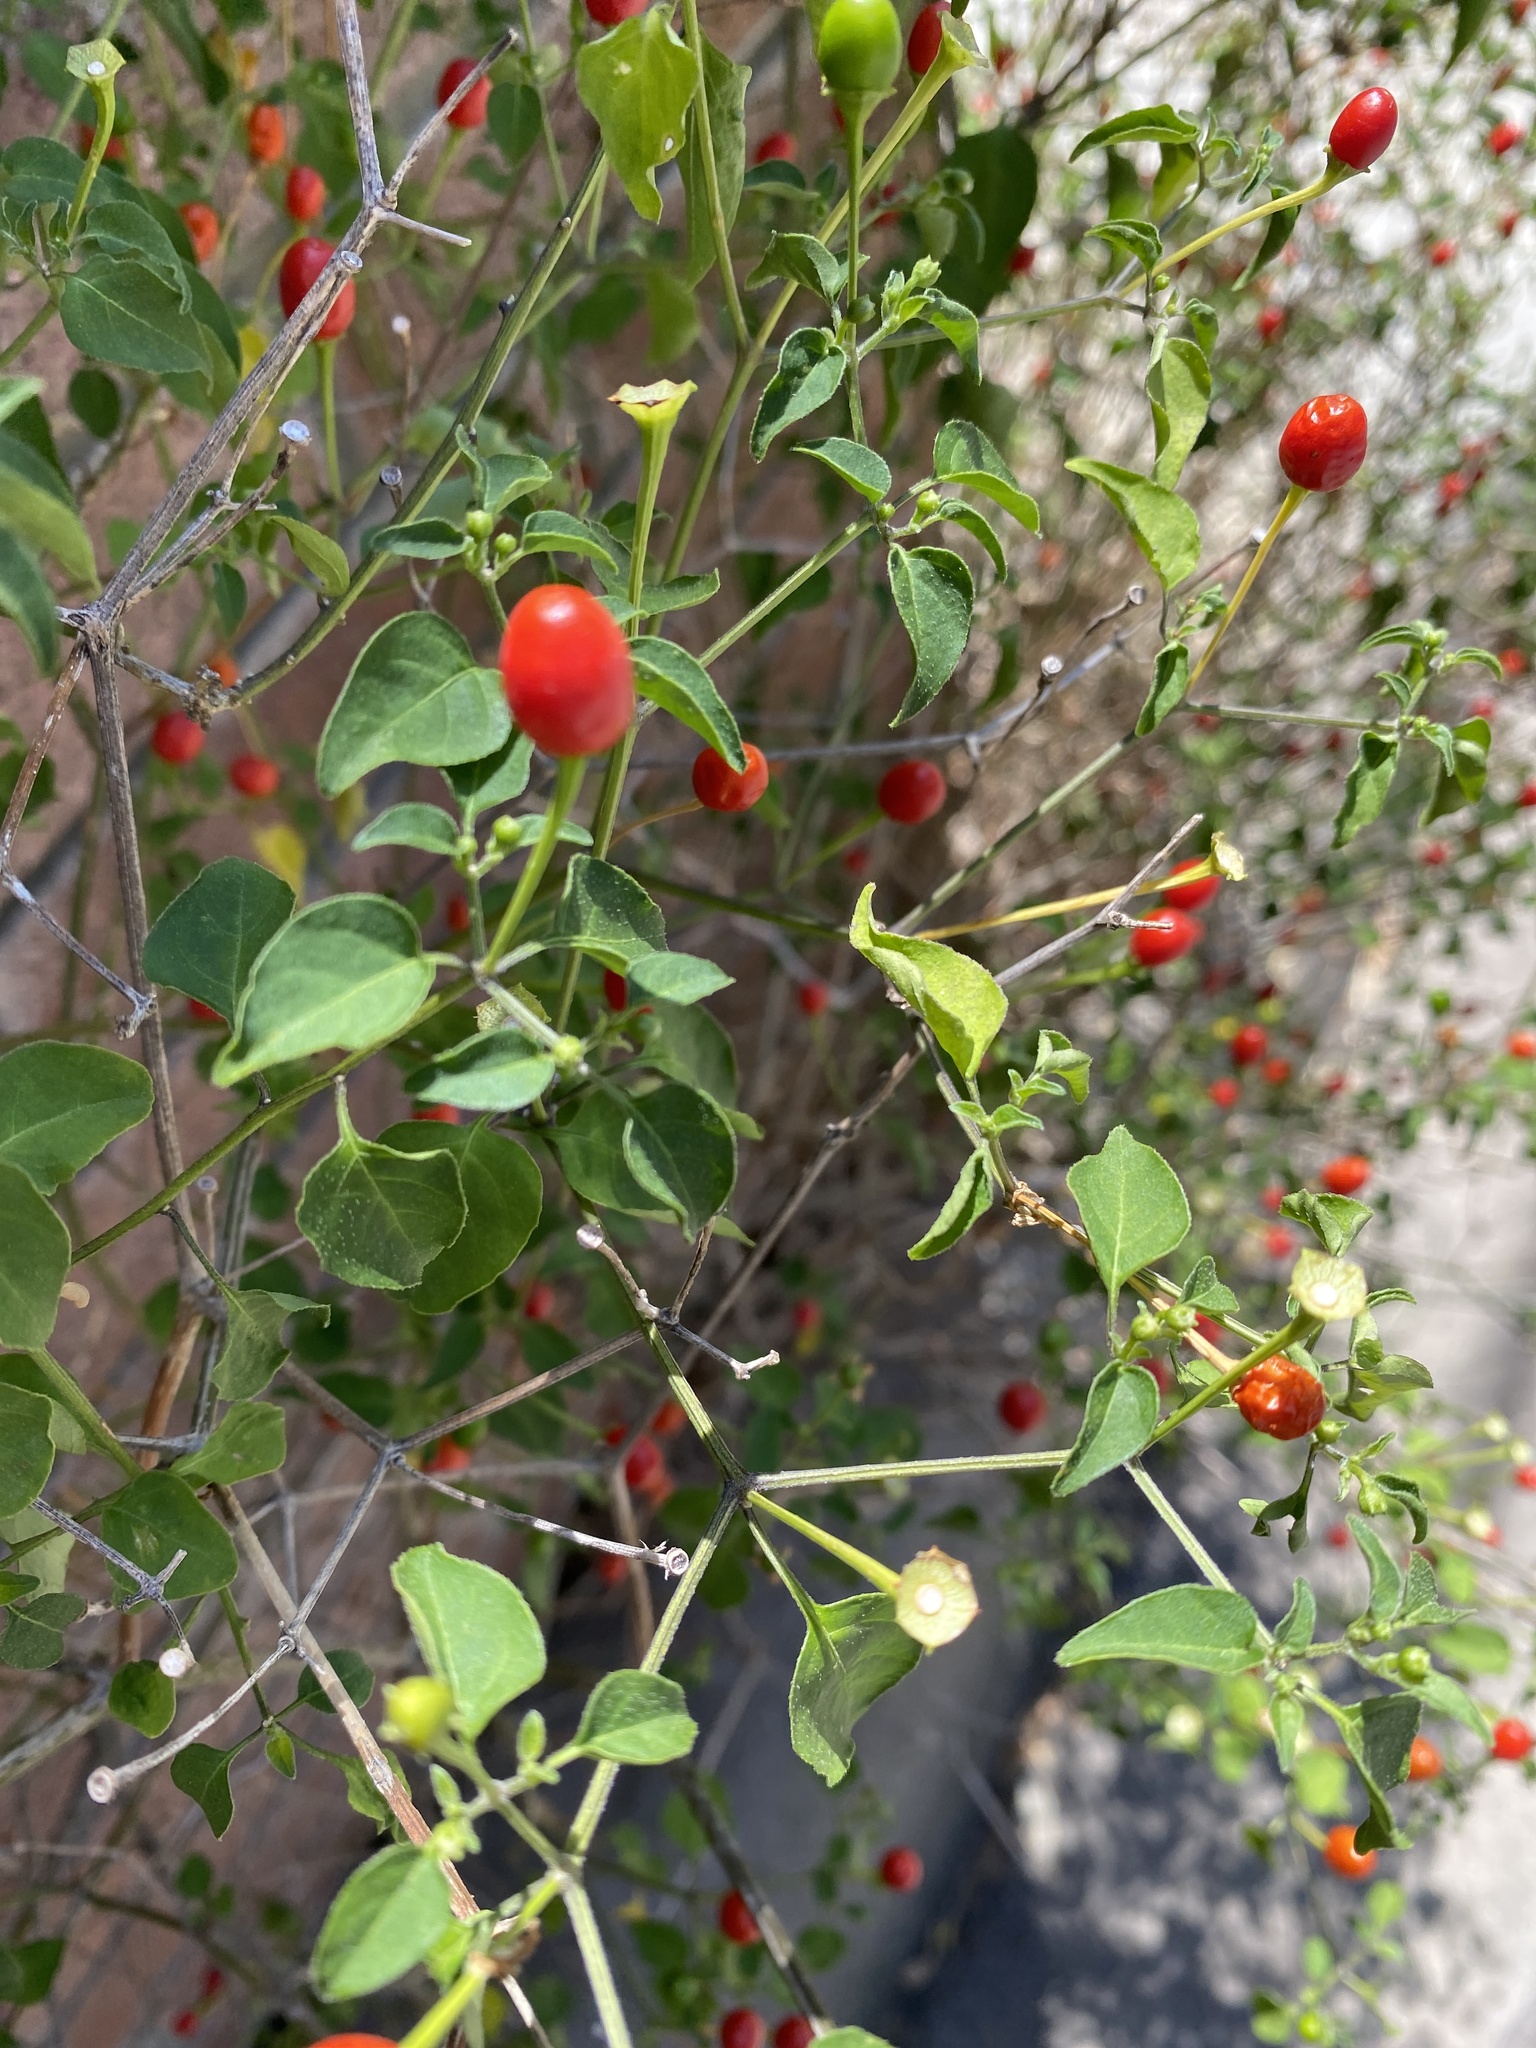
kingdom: Plantae
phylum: Tracheophyta
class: Magnoliopsida
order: Solanales
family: Solanaceae
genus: Capsicum
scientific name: Capsicum annuum
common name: Sweet pepper
